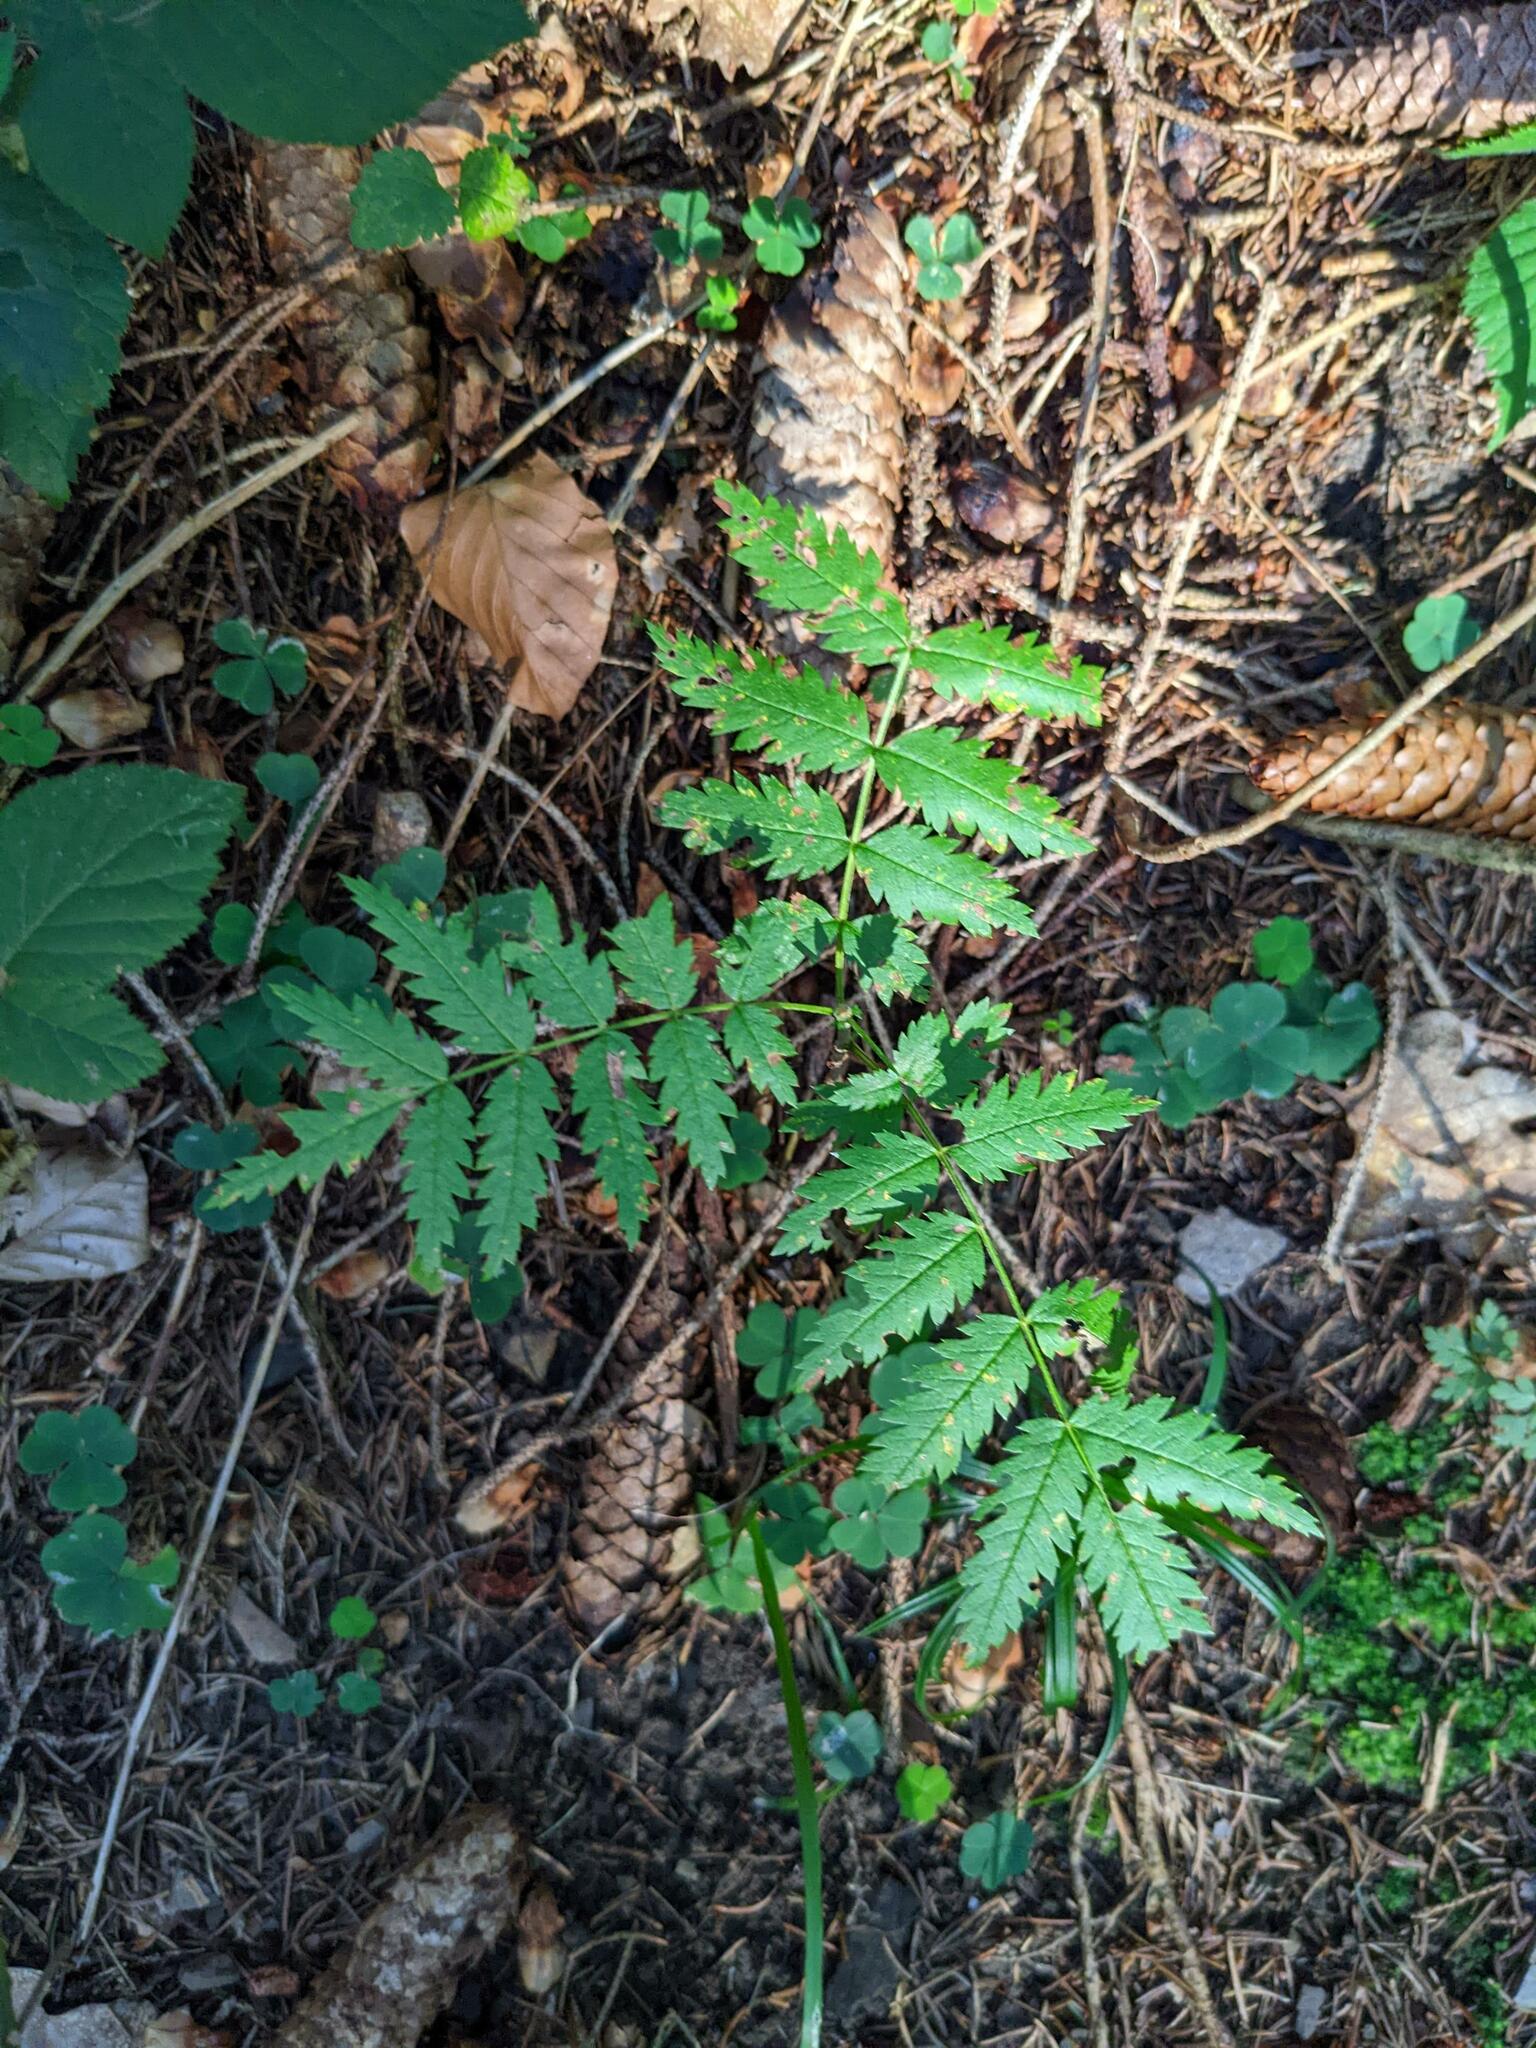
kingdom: Plantae
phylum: Tracheophyta
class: Magnoliopsida
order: Rosales
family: Rosaceae
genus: Sorbus
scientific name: Sorbus aucuparia
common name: Rowan
